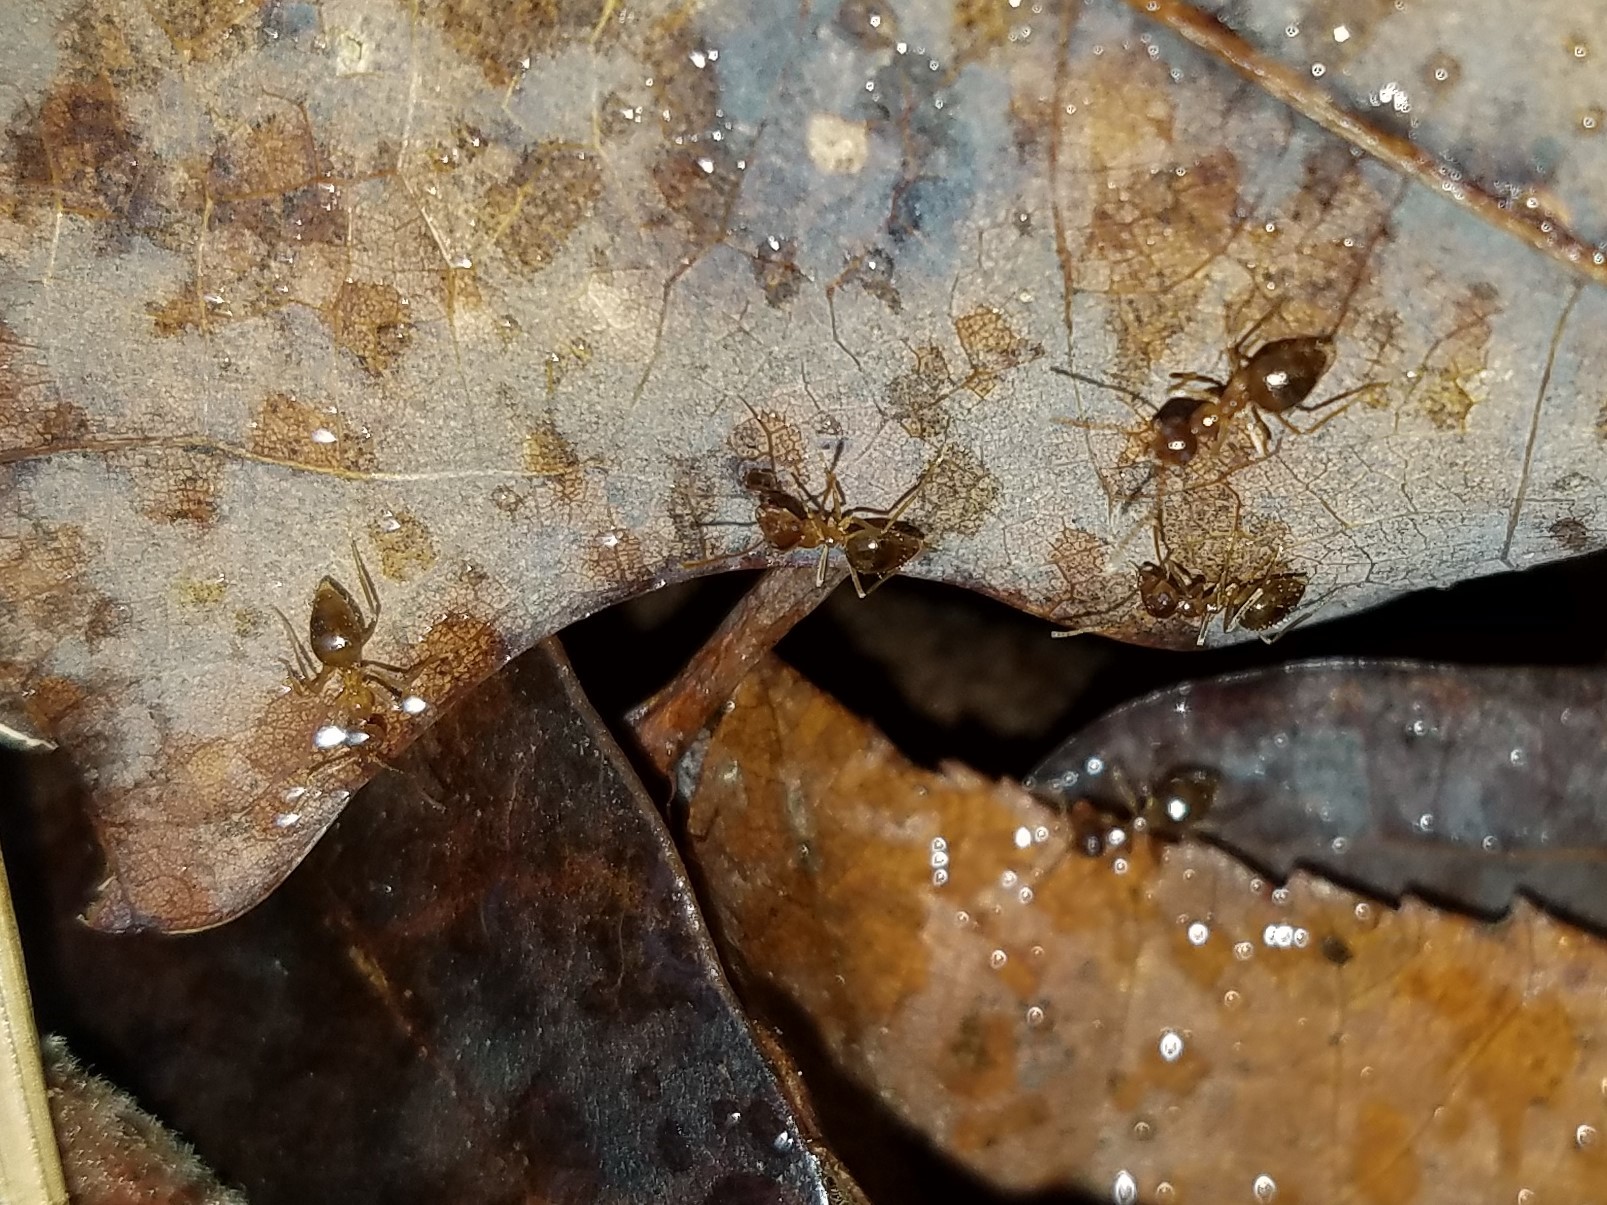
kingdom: Animalia
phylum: Arthropoda
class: Insecta
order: Hymenoptera
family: Formicidae
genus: Prenolepis
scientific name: Prenolepis imparis
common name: Small honey ant
